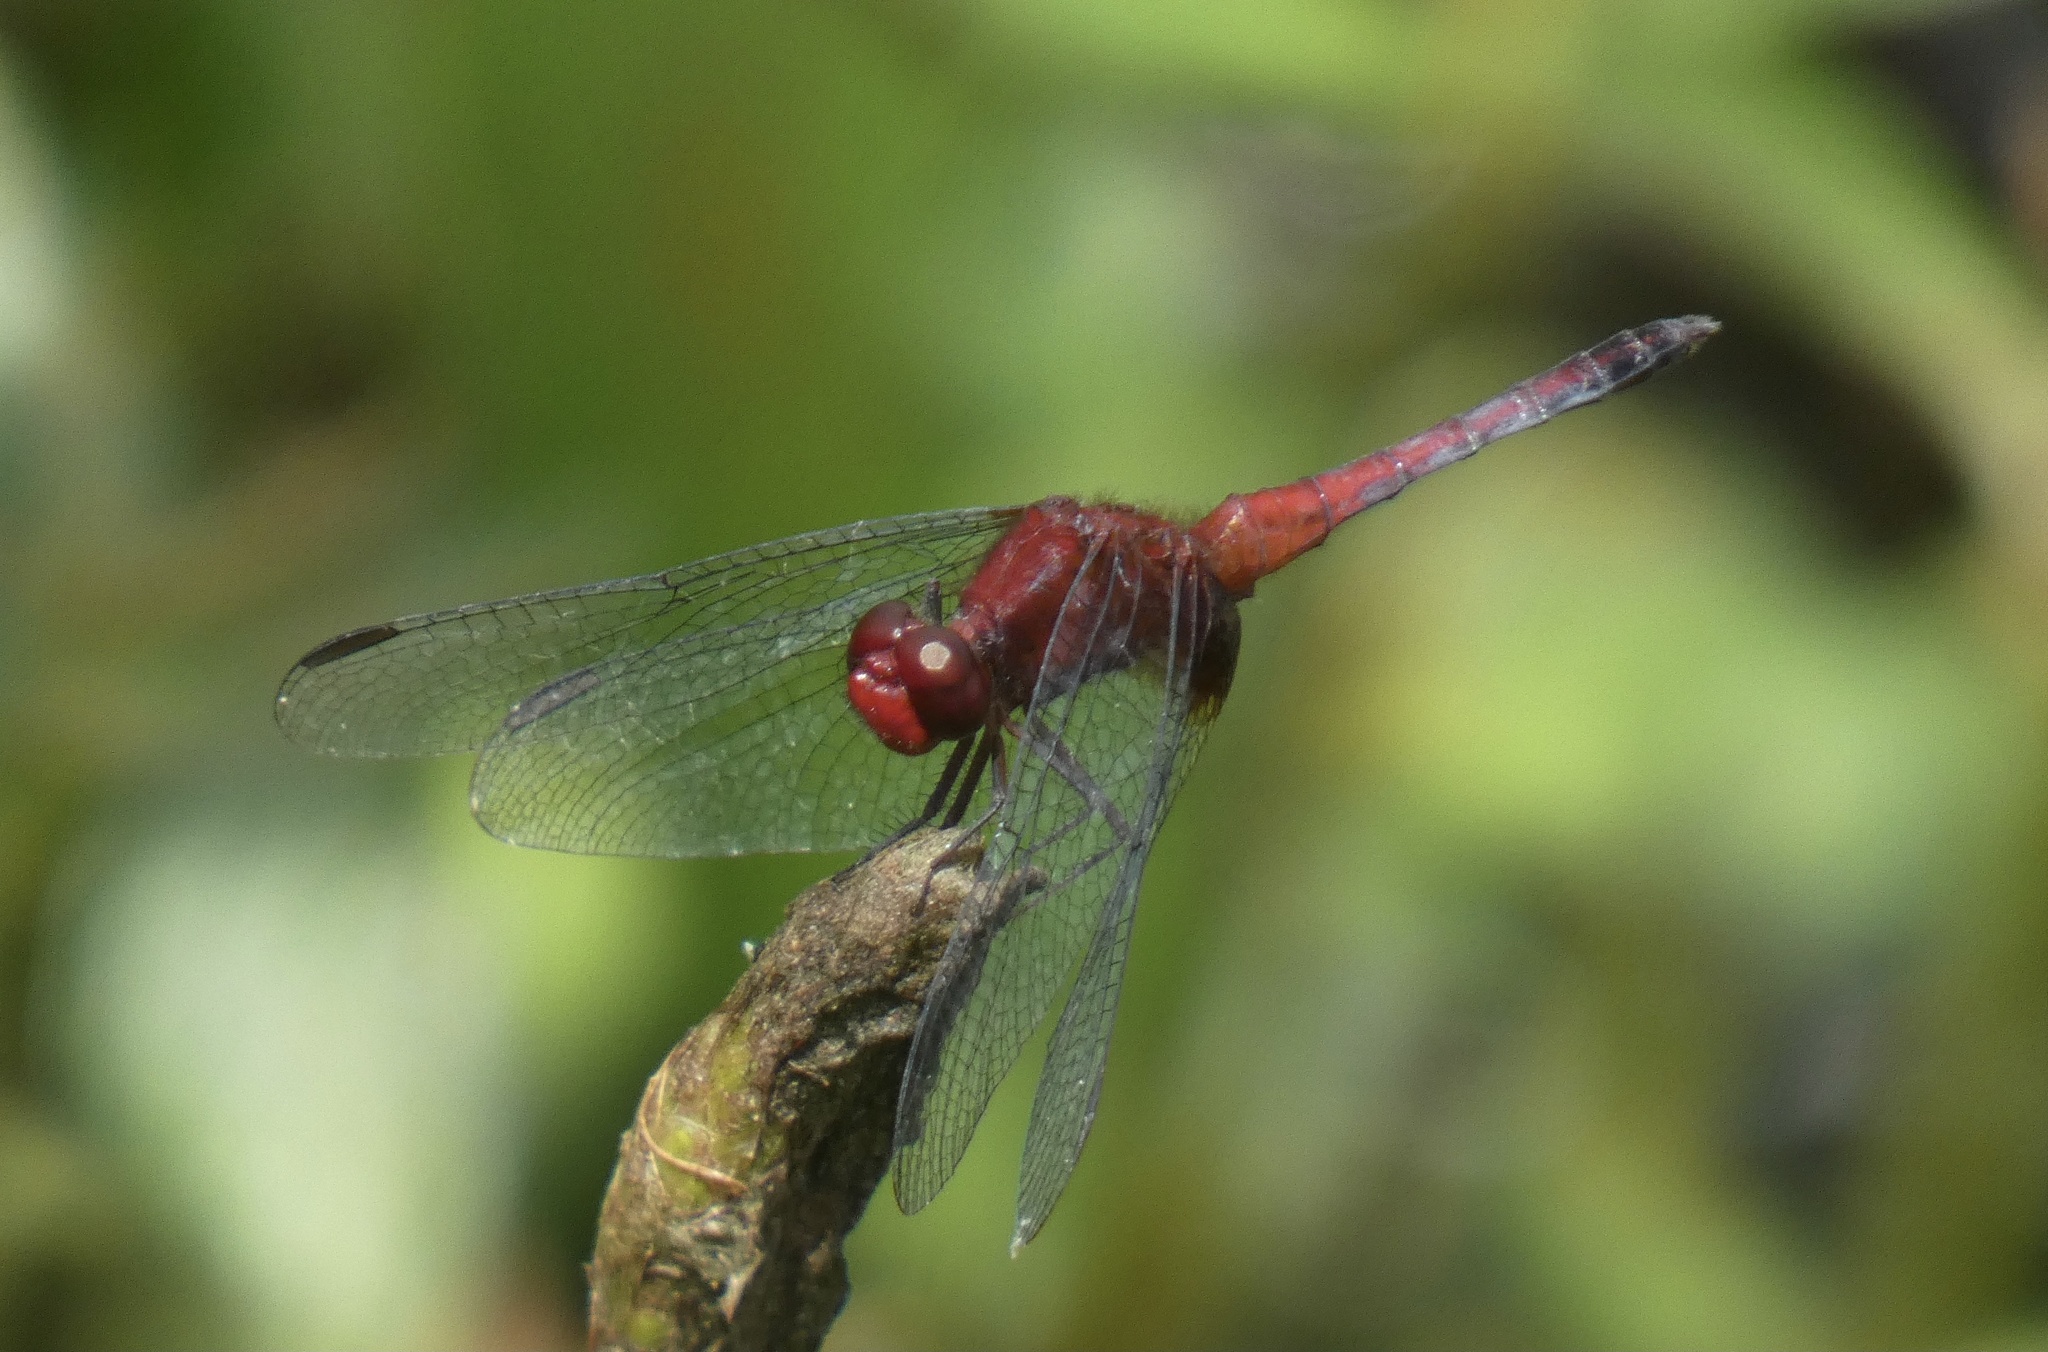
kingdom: Animalia
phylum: Arthropoda
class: Insecta
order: Odonata
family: Libellulidae
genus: Erythrodiplax
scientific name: Erythrodiplax fusca
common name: Red-faced dragonlet
